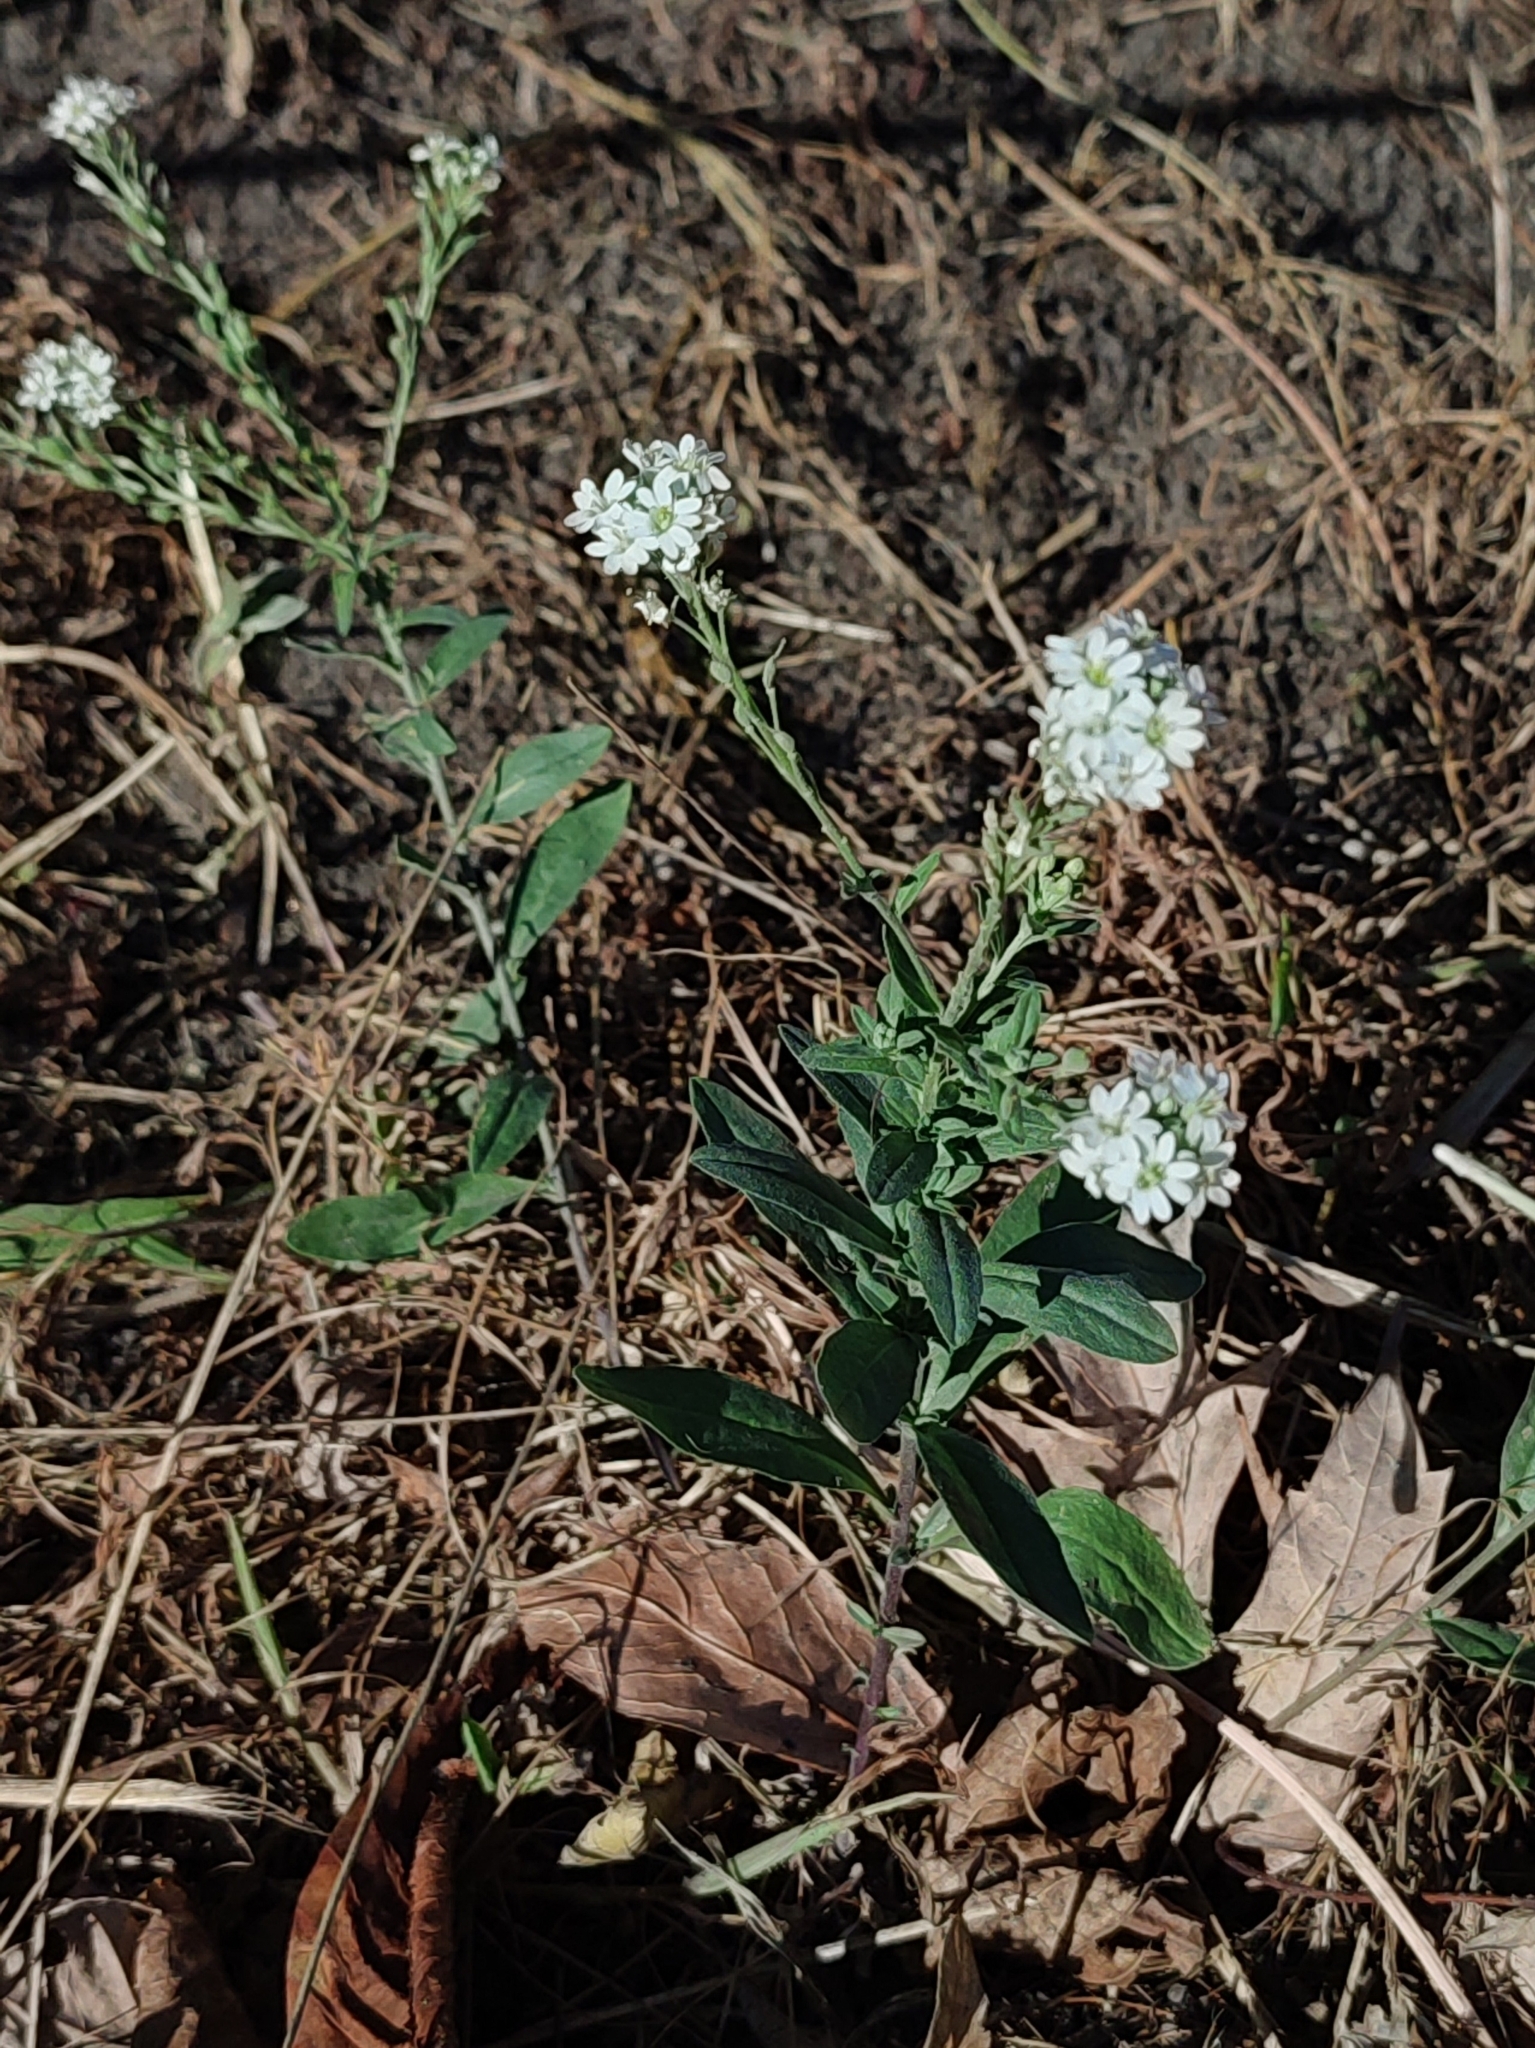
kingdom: Plantae
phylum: Tracheophyta
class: Magnoliopsida
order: Brassicales
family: Brassicaceae
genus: Berteroa
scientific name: Berteroa incana
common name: Hoary alison
